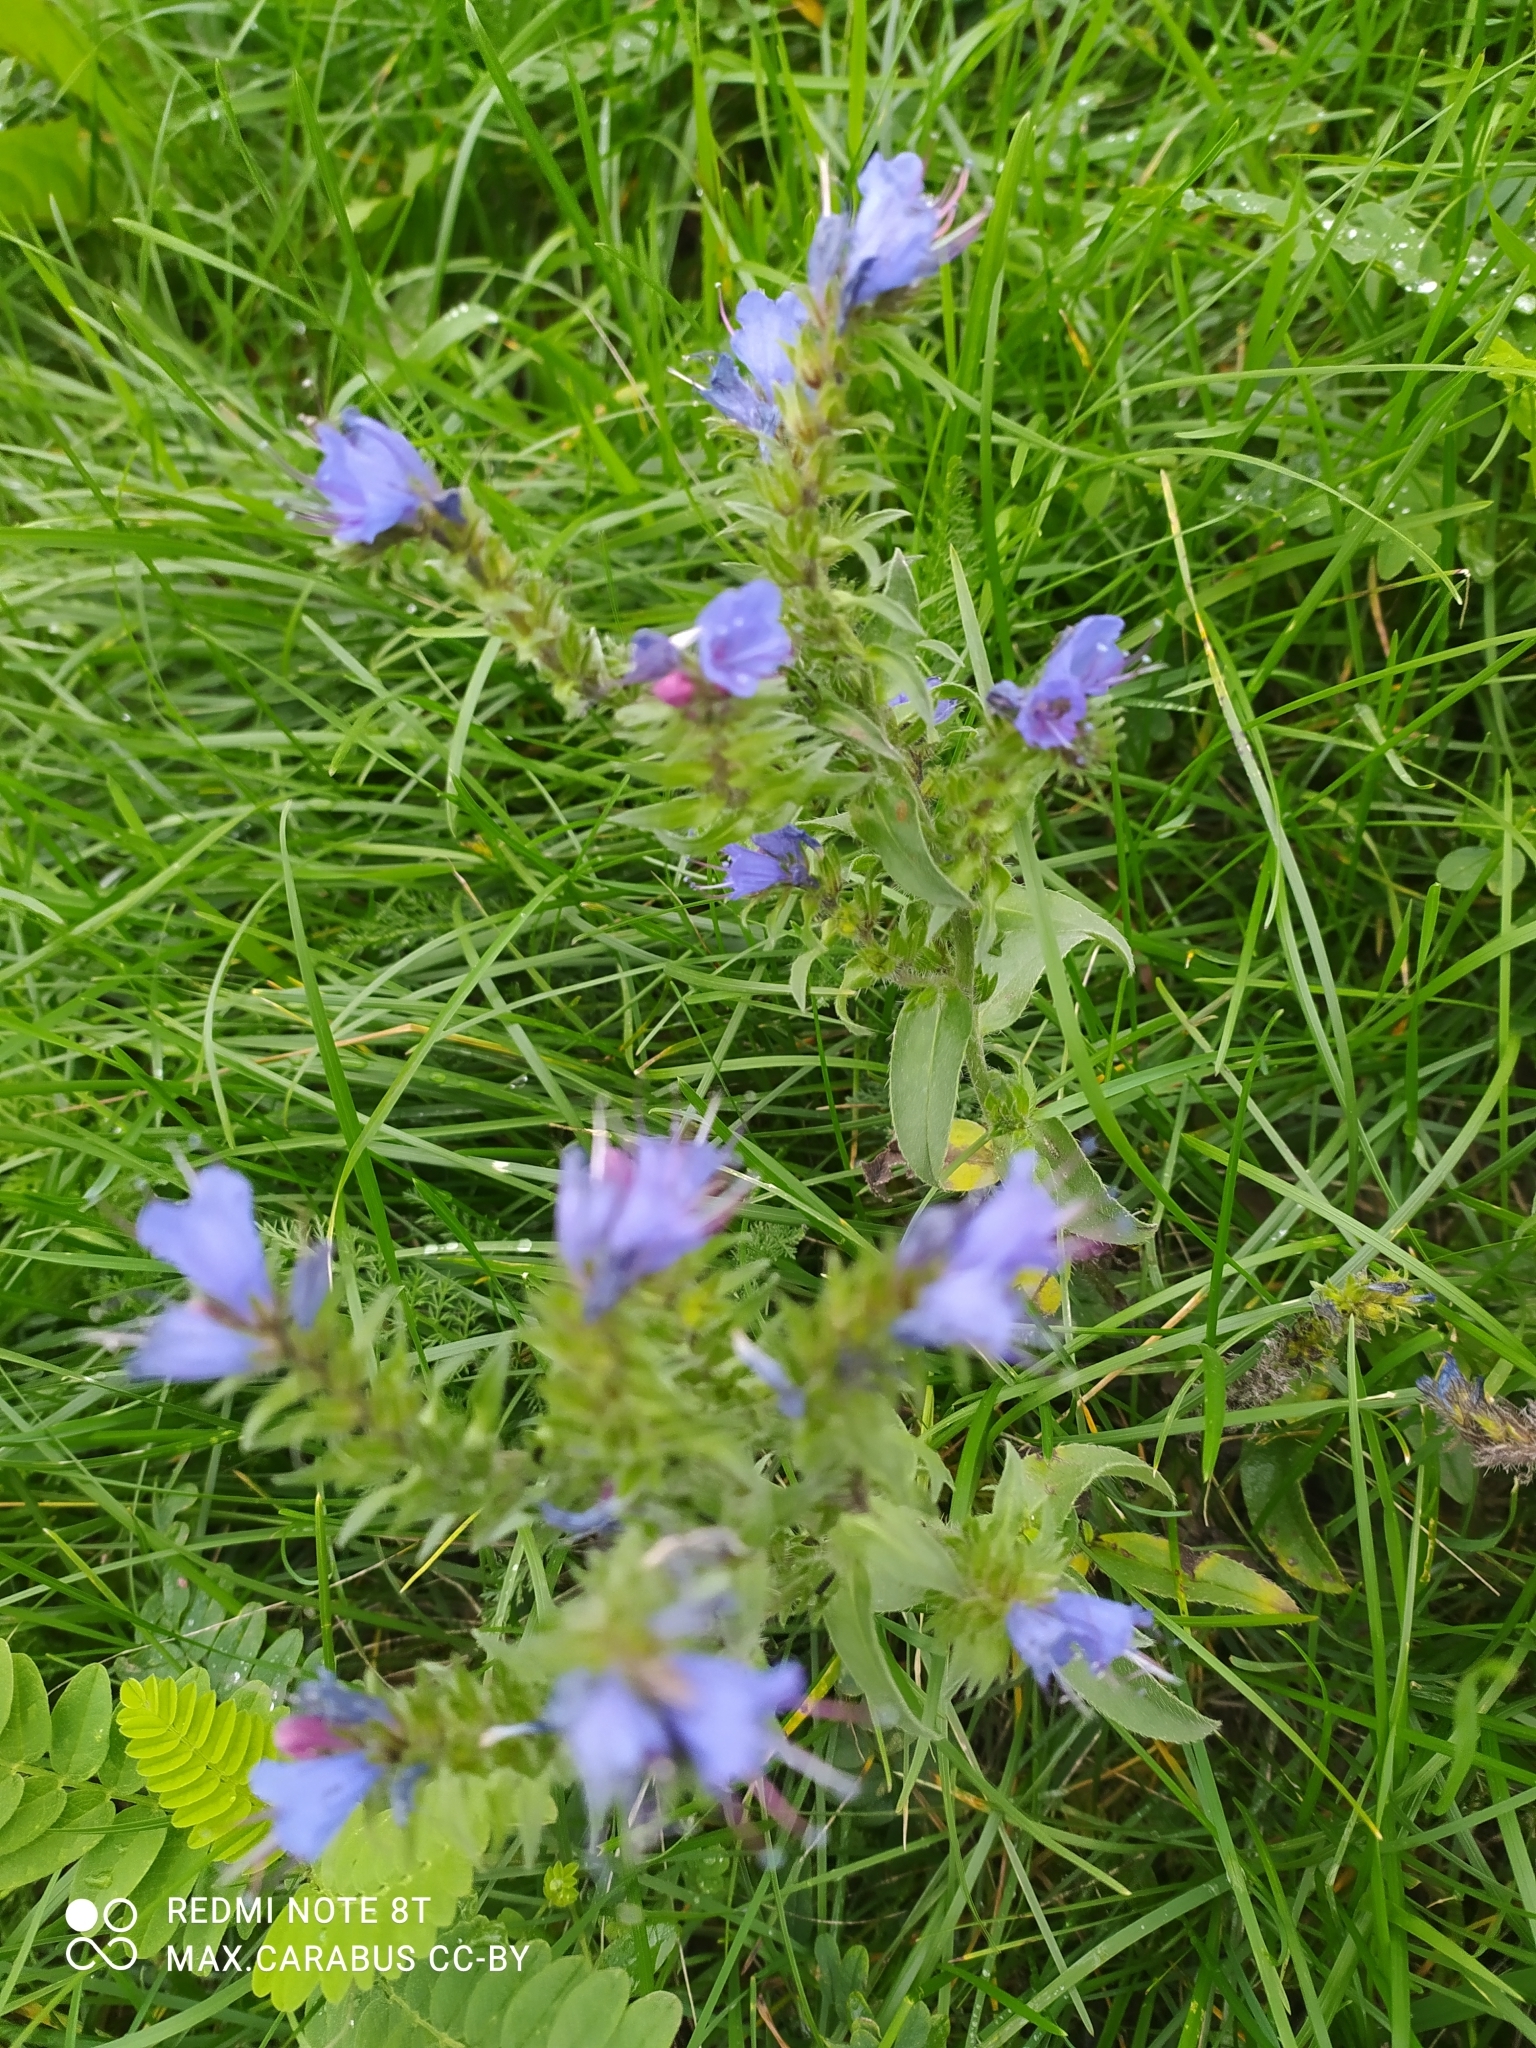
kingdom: Plantae
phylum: Tracheophyta
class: Magnoliopsida
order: Boraginales
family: Boraginaceae
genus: Echium
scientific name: Echium vulgare
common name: Common viper's bugloss
